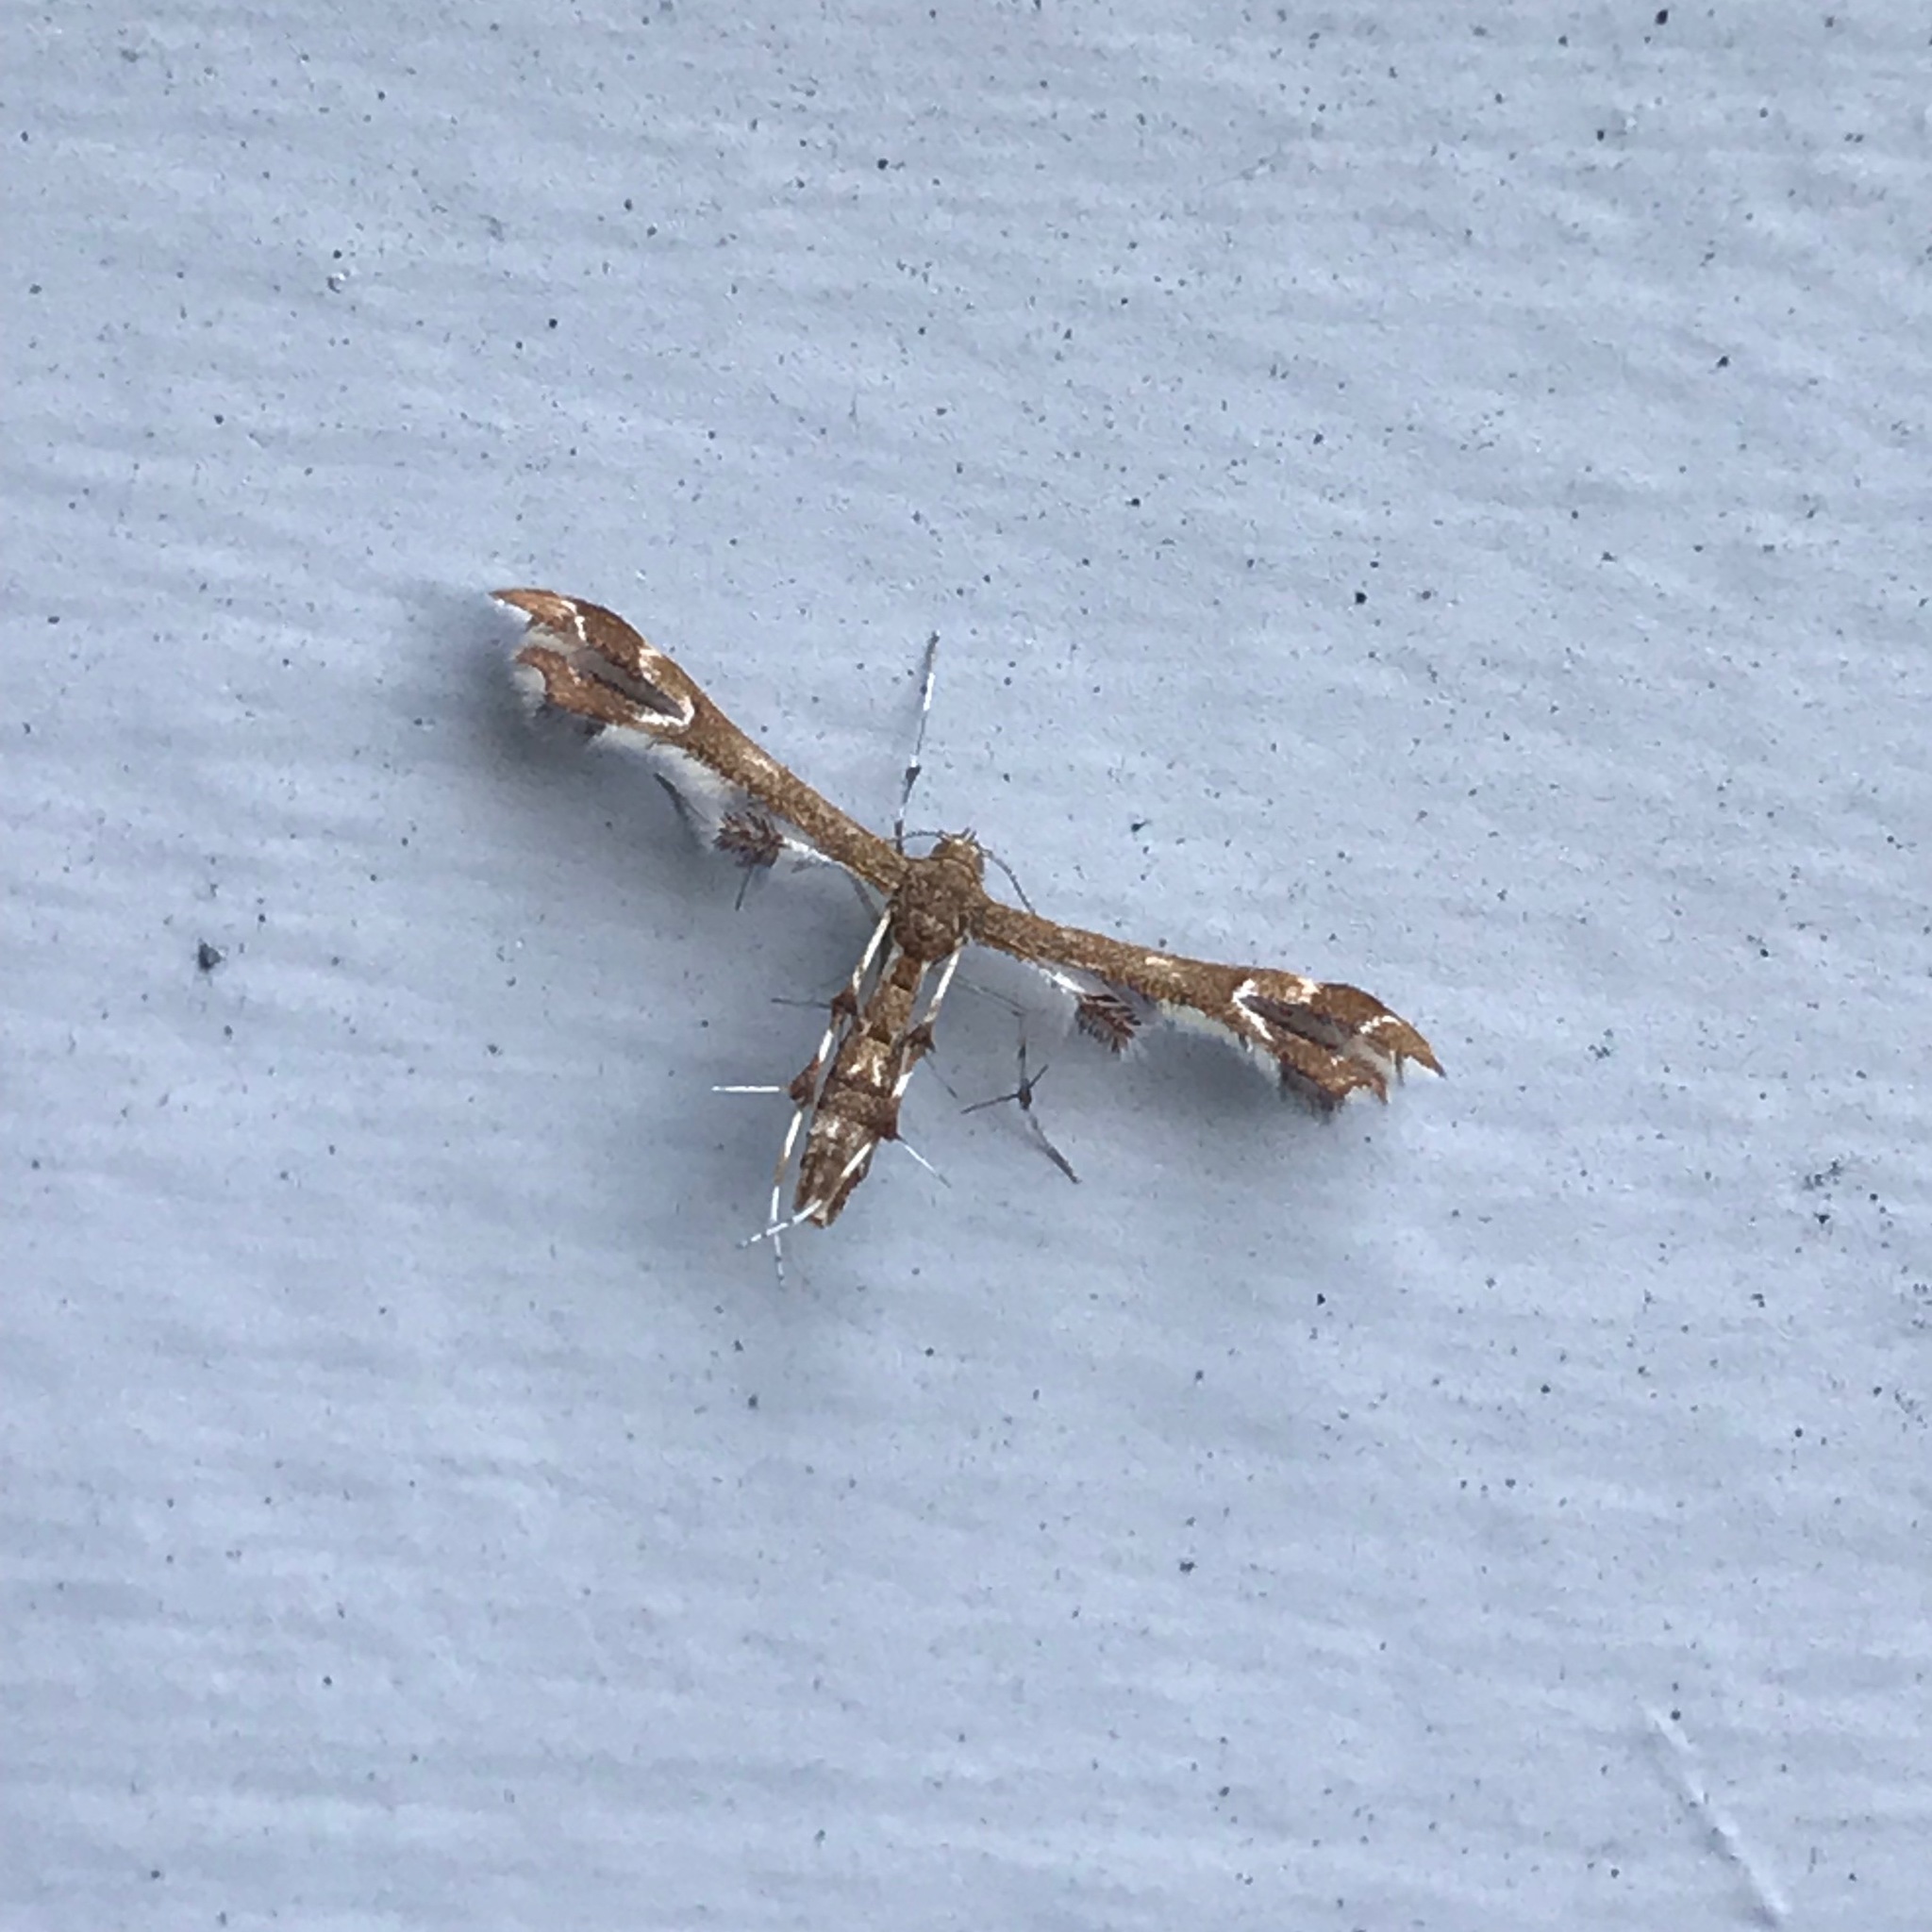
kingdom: Animalia
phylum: Arthropoda
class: Insecta
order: Lepidoptera
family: Pterophoridae
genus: Geina
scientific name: Geina
